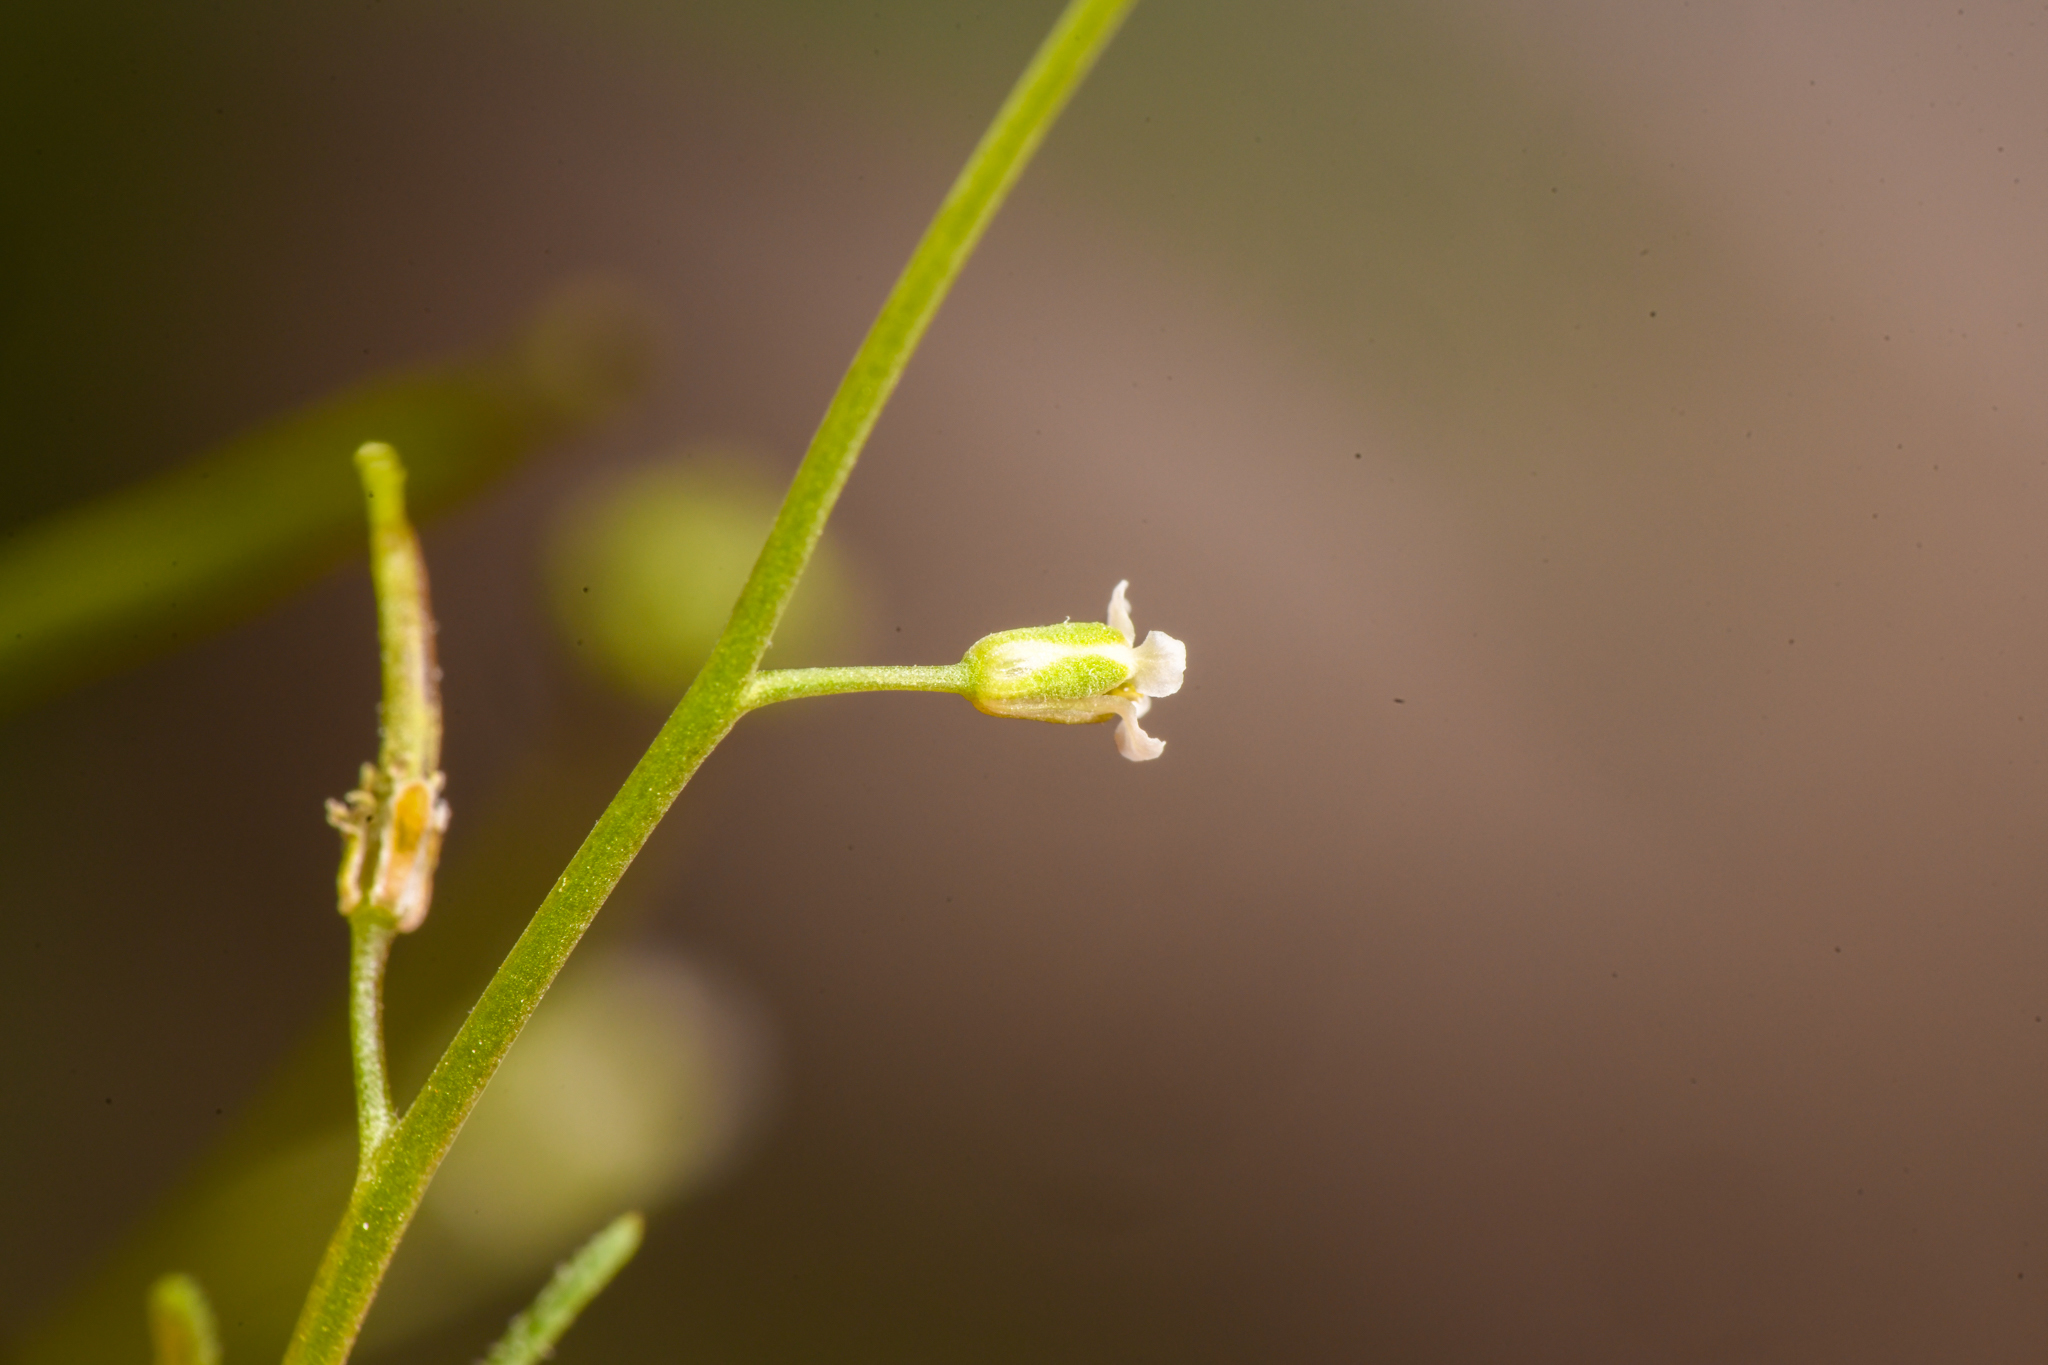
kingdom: Plantae
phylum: Tracheophyta
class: Magnoliopsida
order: Brassicales
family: Brassicaceae
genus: Streptanthus
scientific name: Streptanthus lasiophyllus
